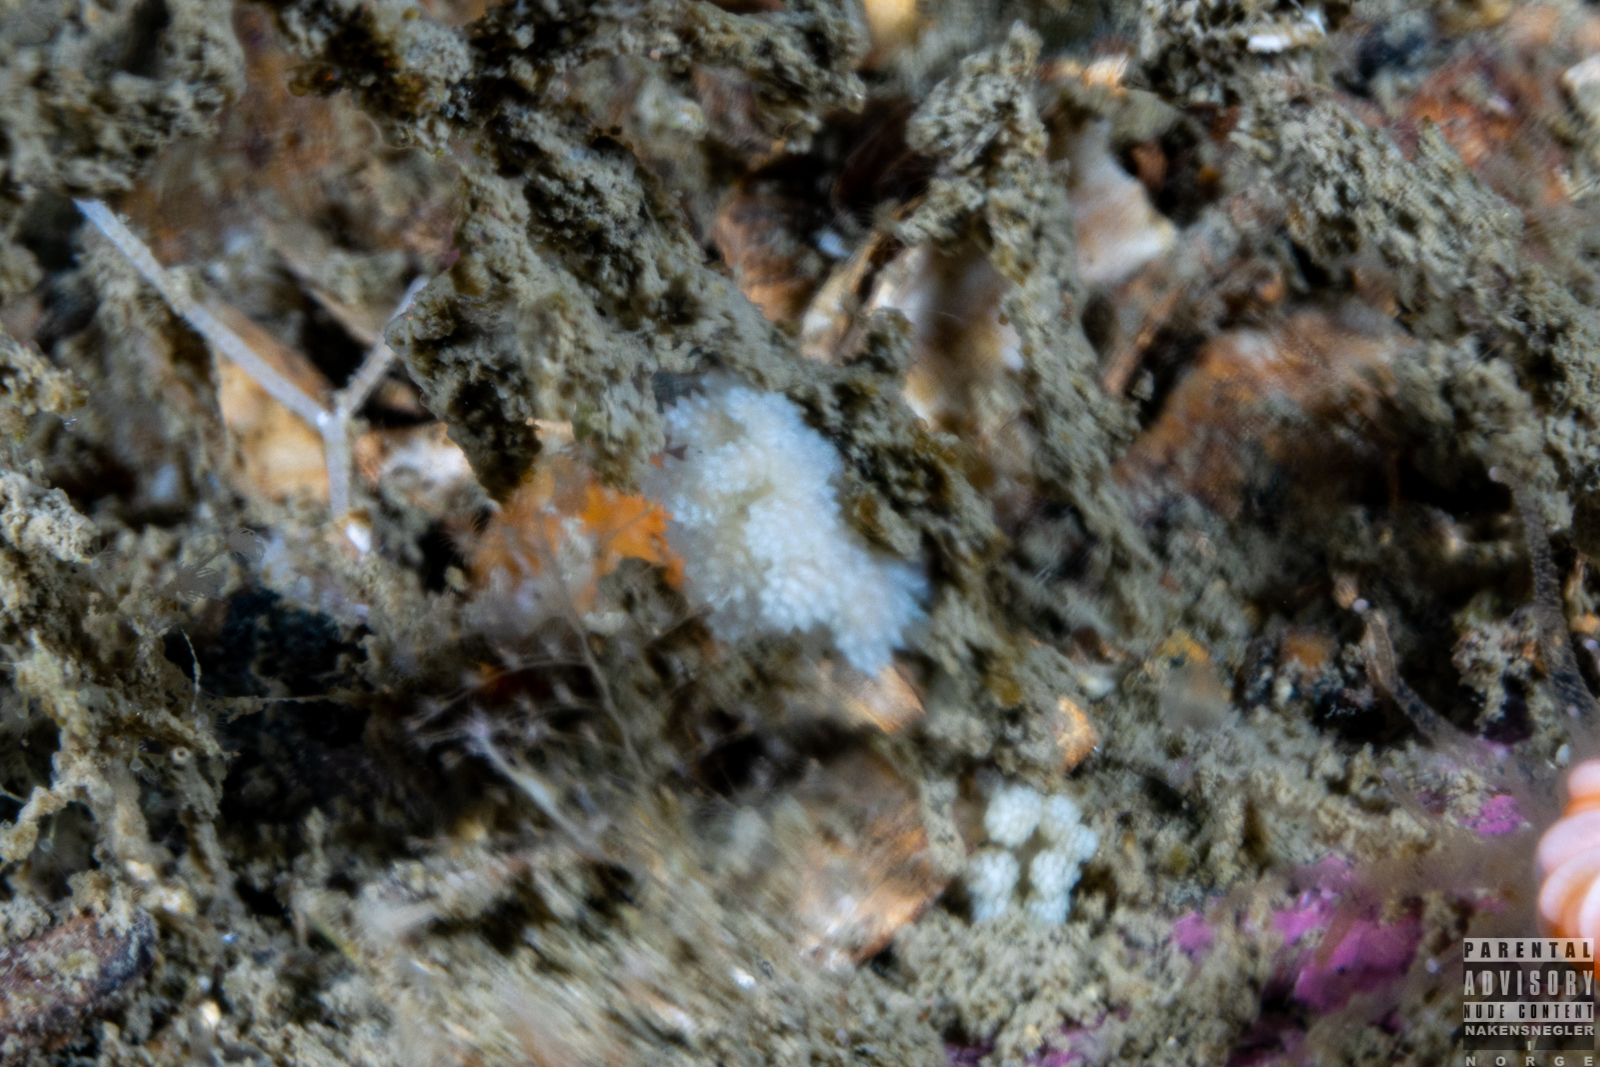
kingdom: Animalia
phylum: Mollusca
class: Gastropoda
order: Nudibranchia
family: Dotidae
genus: Doto
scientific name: Doto fragilis
